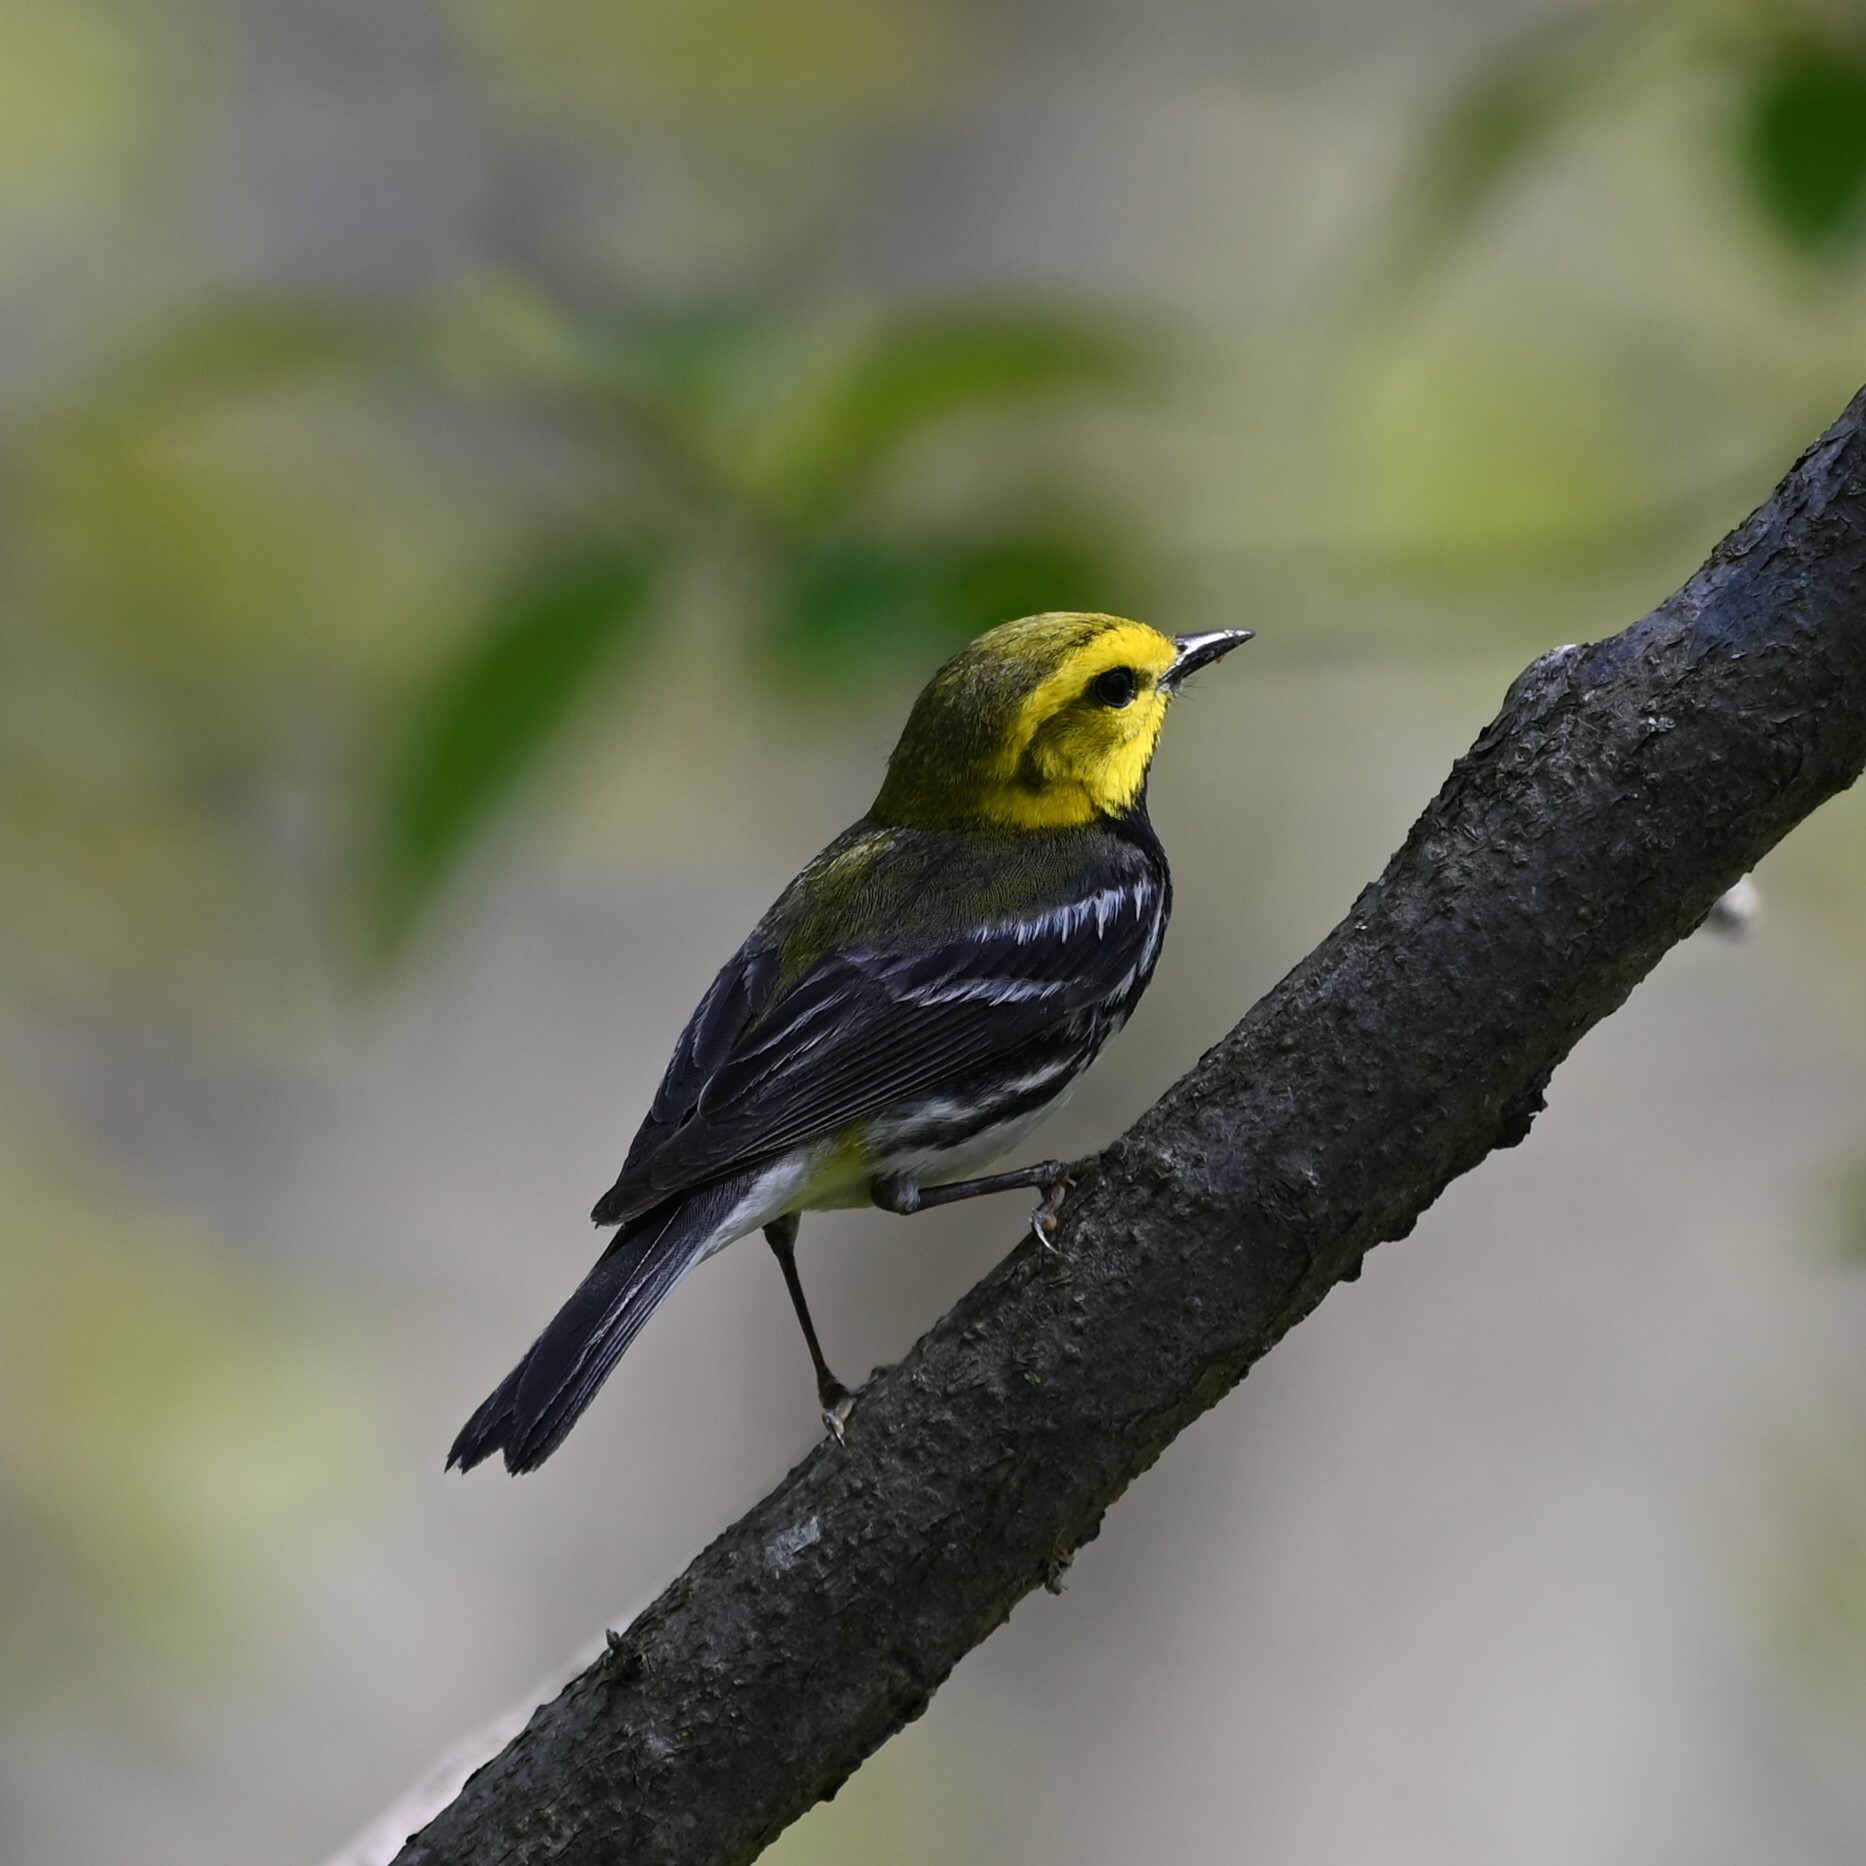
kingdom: Animalia
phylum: Chordata
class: Aves
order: Passeriformes
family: Parulidae
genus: Setophaga
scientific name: Setophaga virens
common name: Black-throated green warbler
